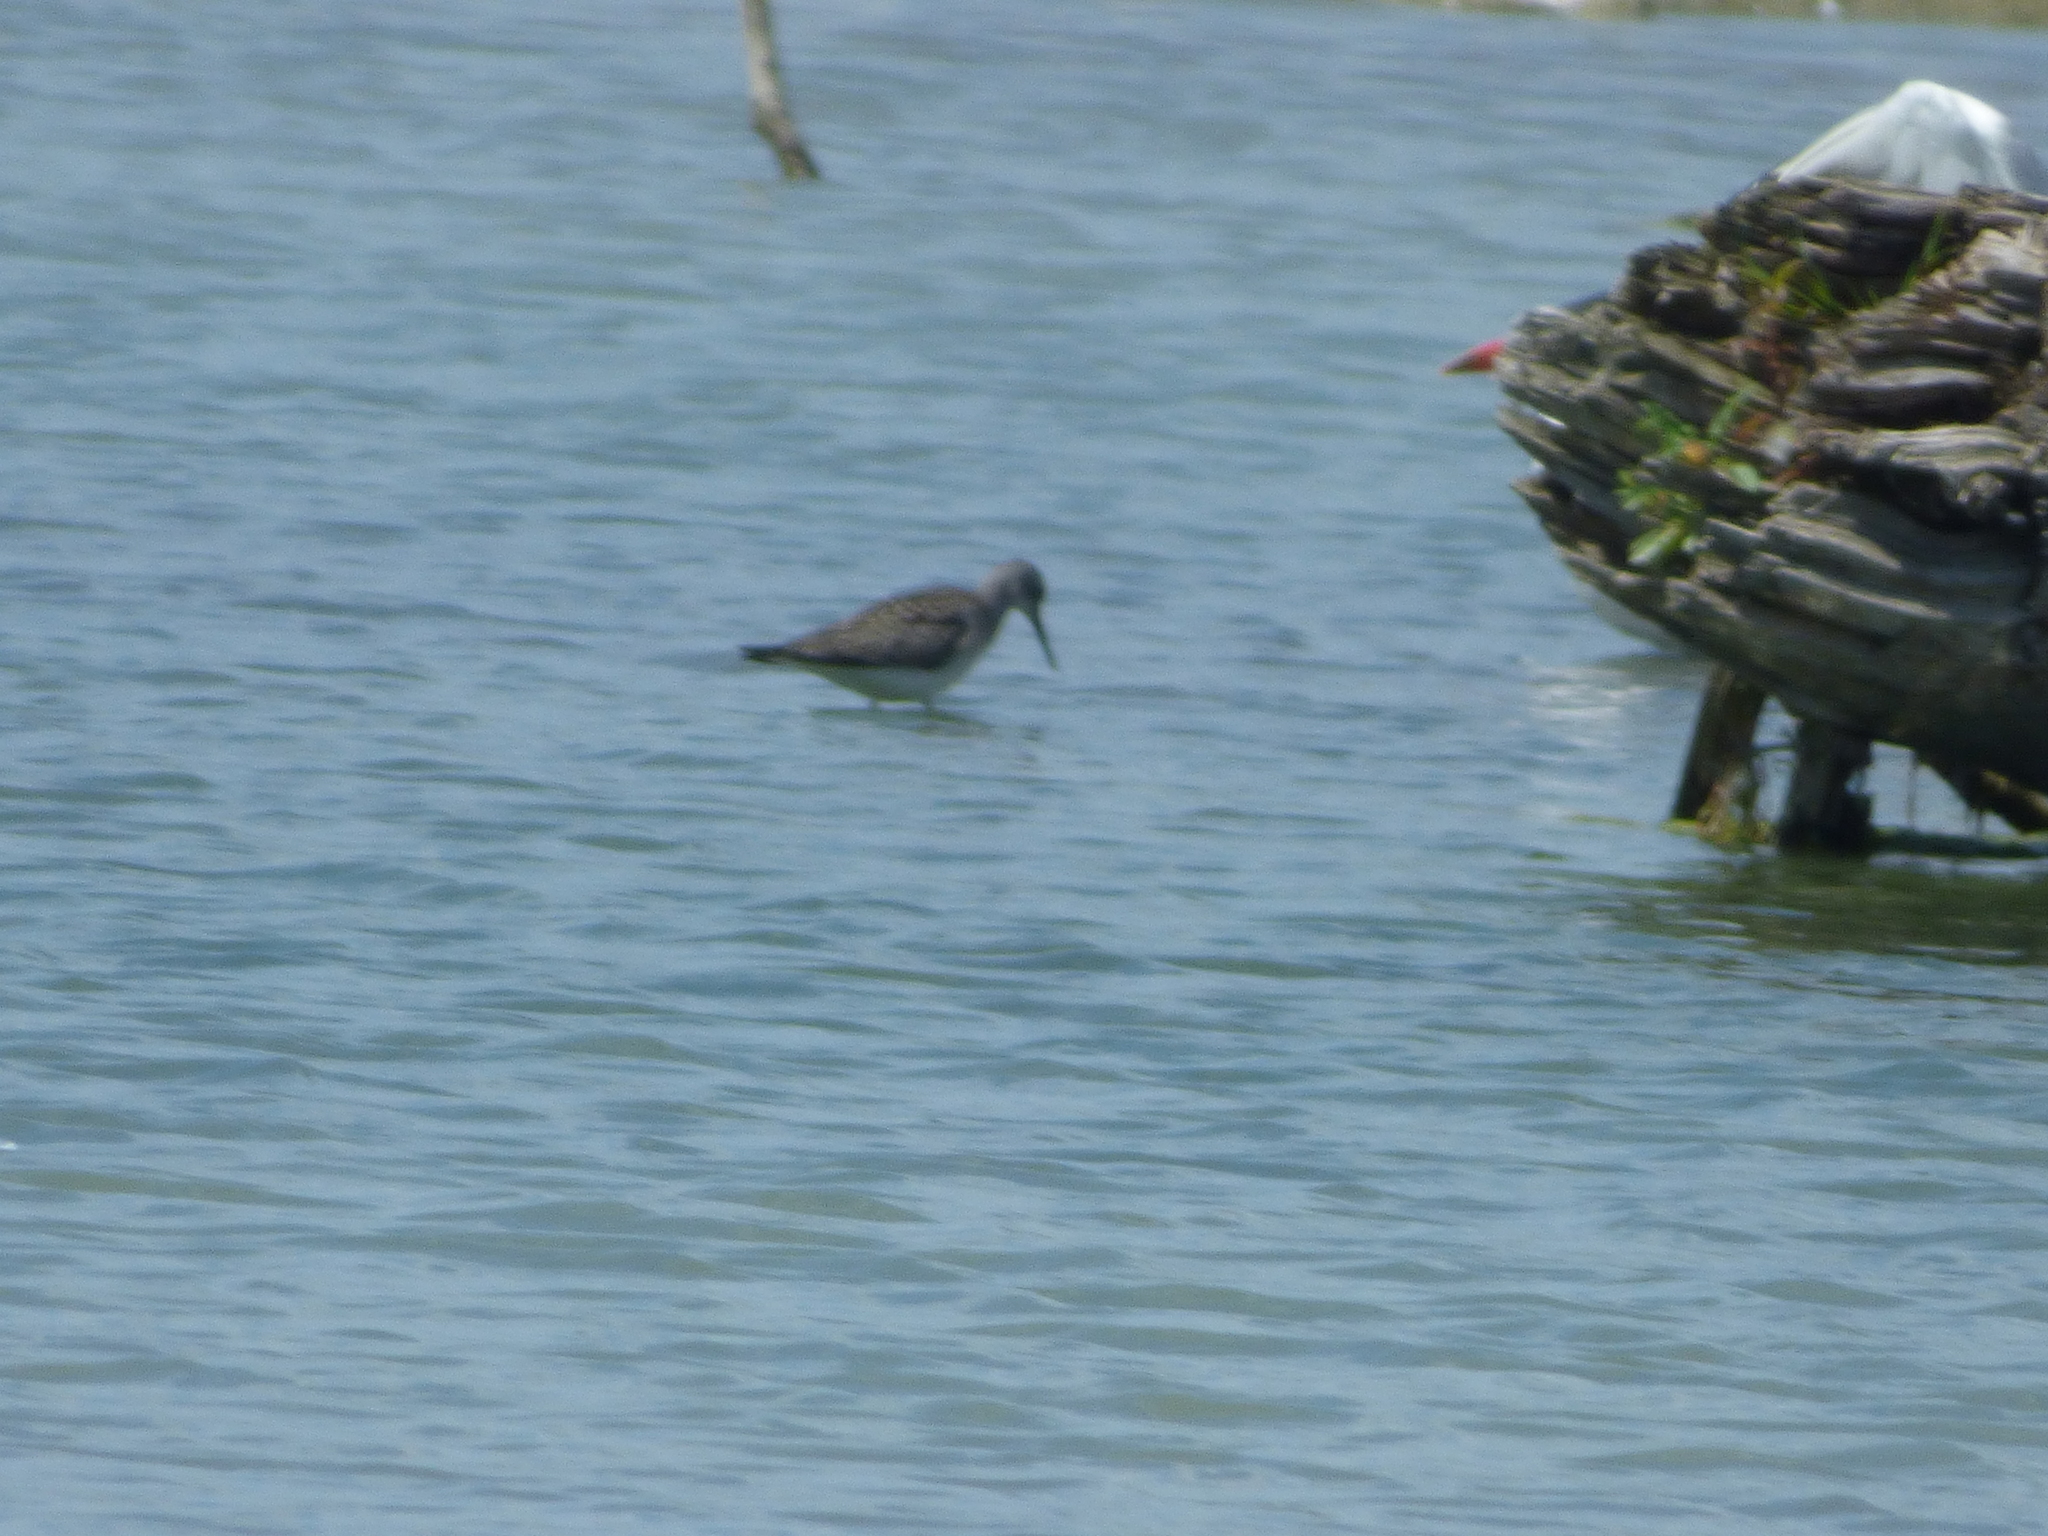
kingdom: Animalia
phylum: Chordata
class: Aves
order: Charadriiformes
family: Scolopacidae
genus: Tringa
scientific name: Tringa melanoleuca
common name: Greater yellowlegs
